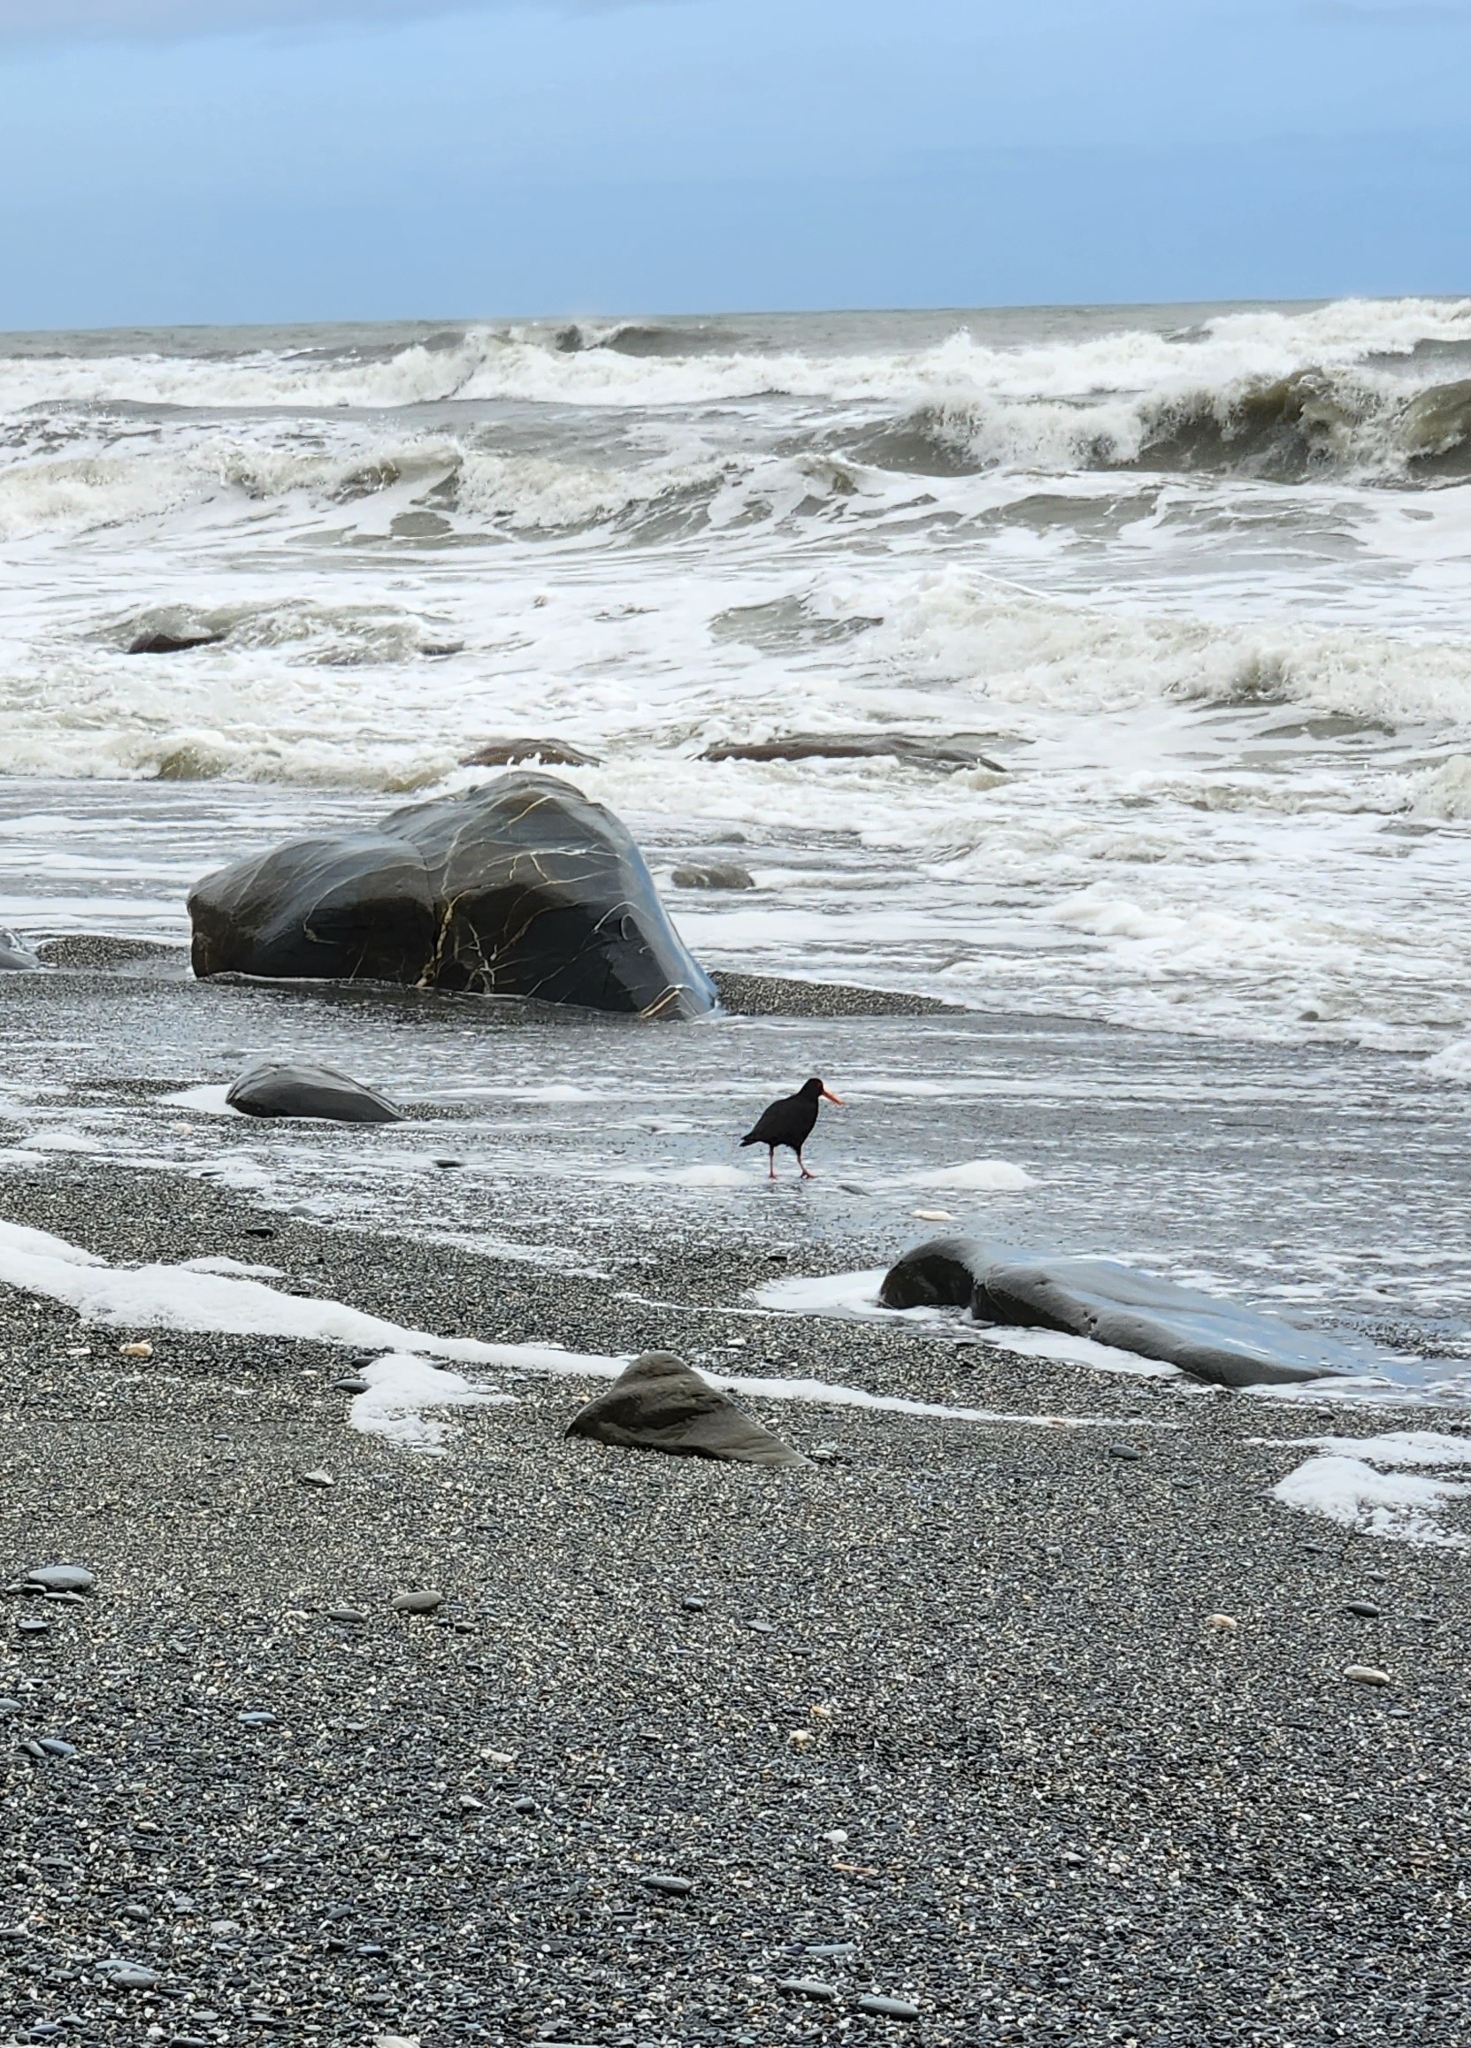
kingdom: Animalia
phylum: Chordata
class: Aves
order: Charadriiformes
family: Haematopodidae
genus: Haematopus
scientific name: Haematopus unicolor
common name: Variable oystercatcher
